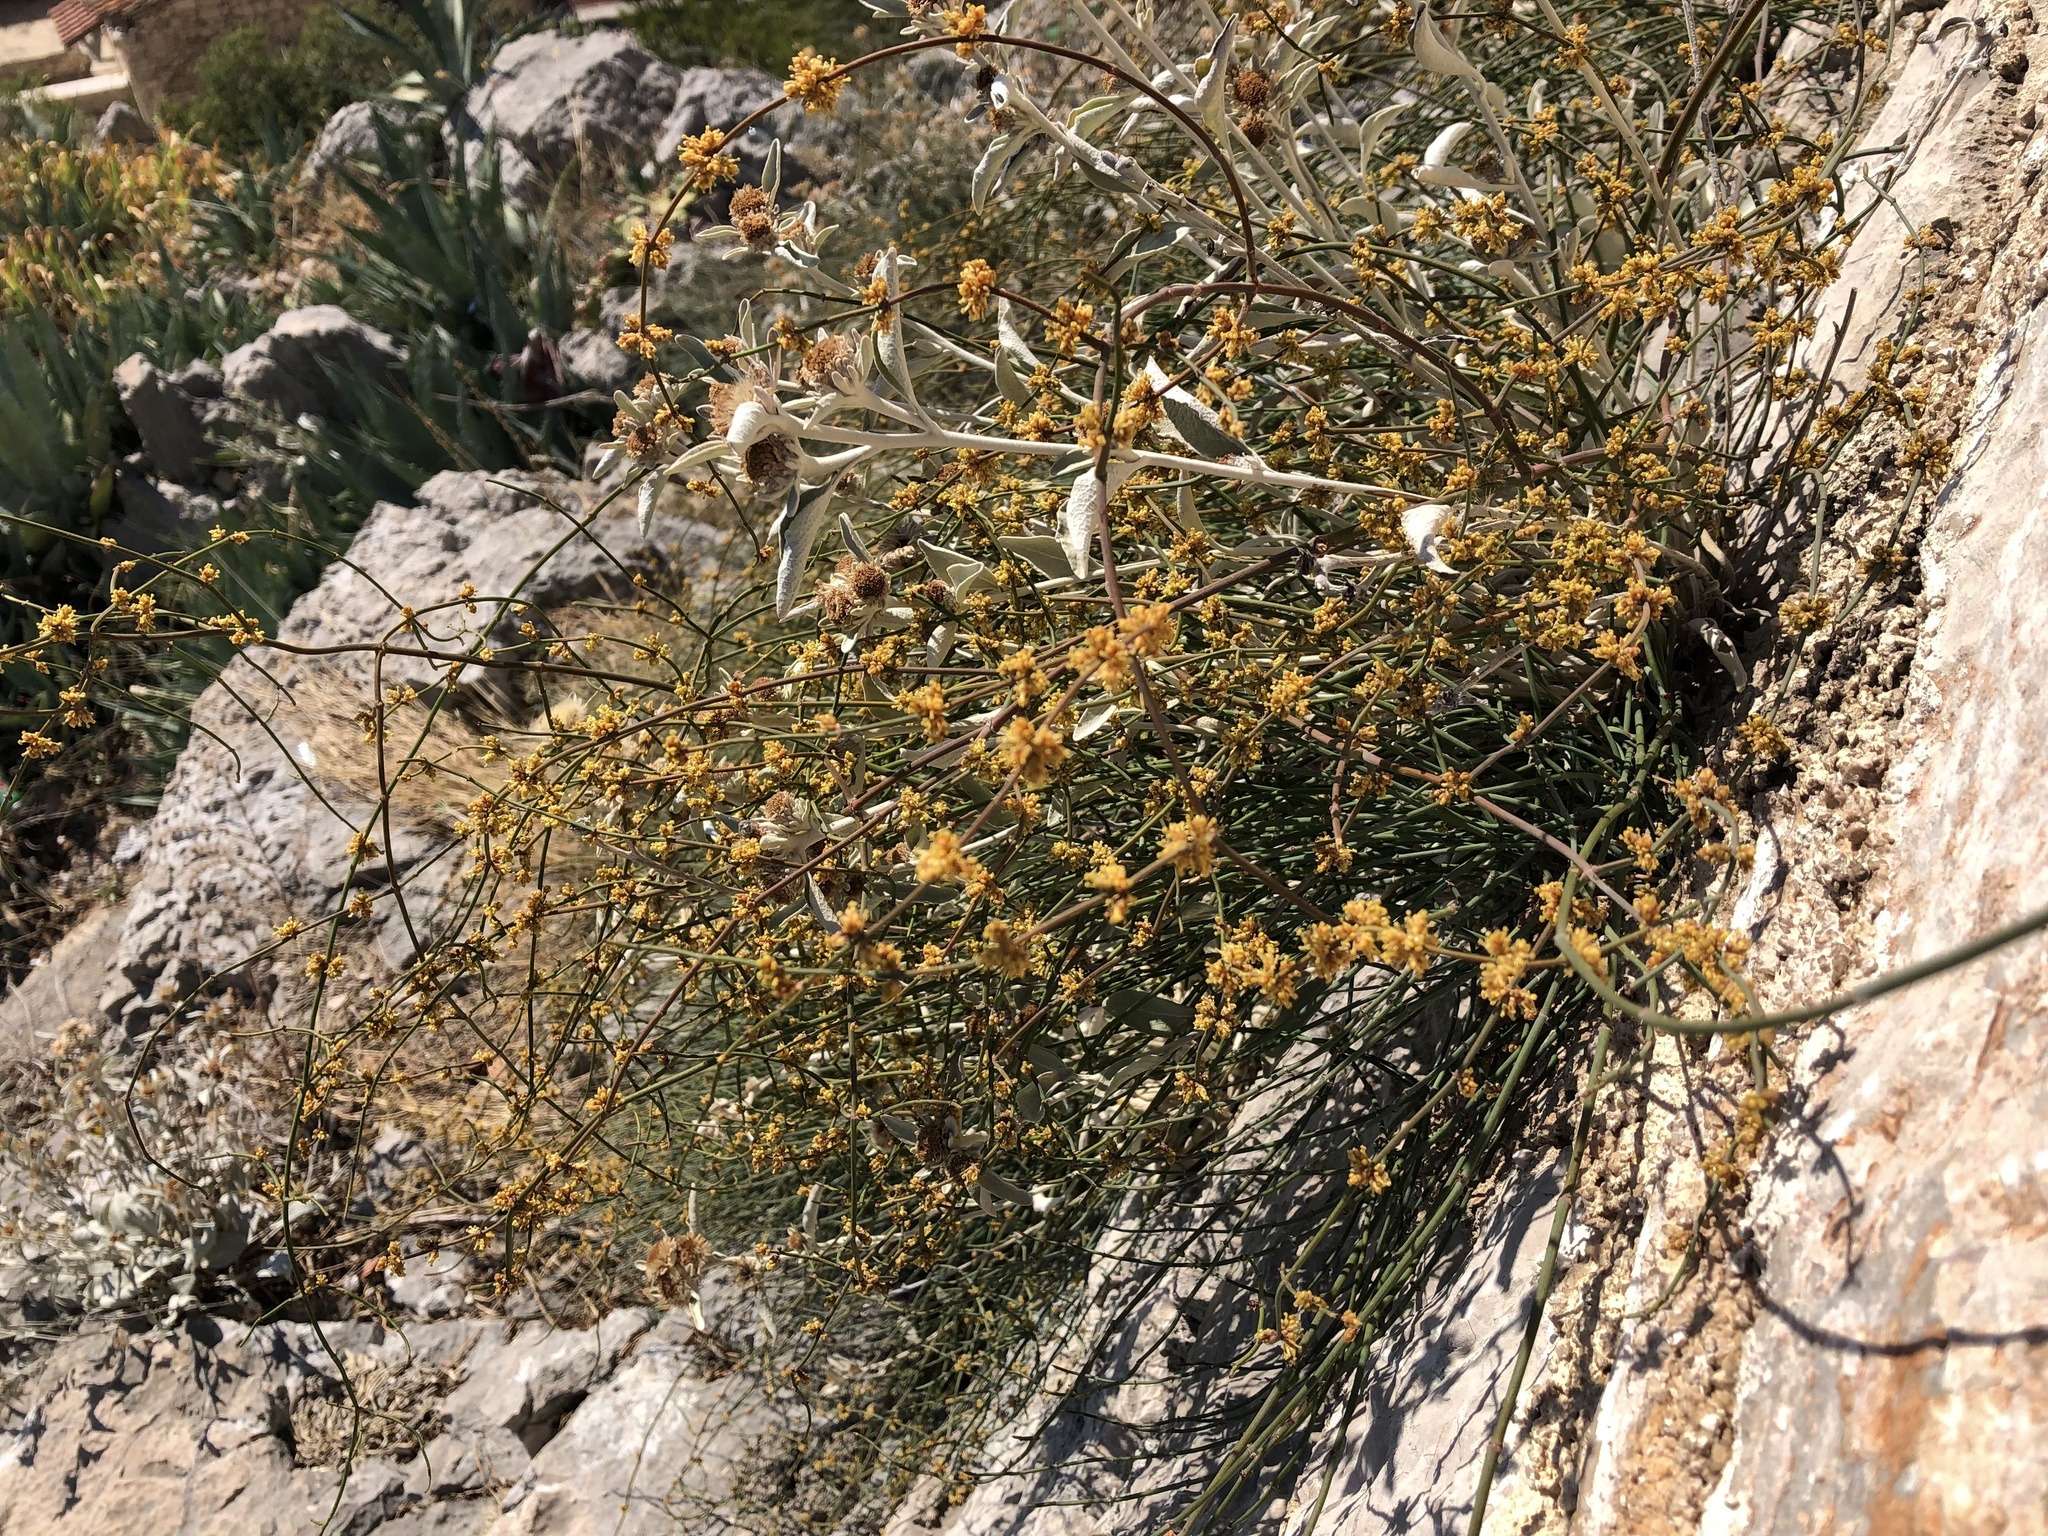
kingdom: Plantae
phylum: Tracheophyta
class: Gnetopsida
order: Ephedrales
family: Ephedraceae
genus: Ephedra
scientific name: Ephedra foeminea
